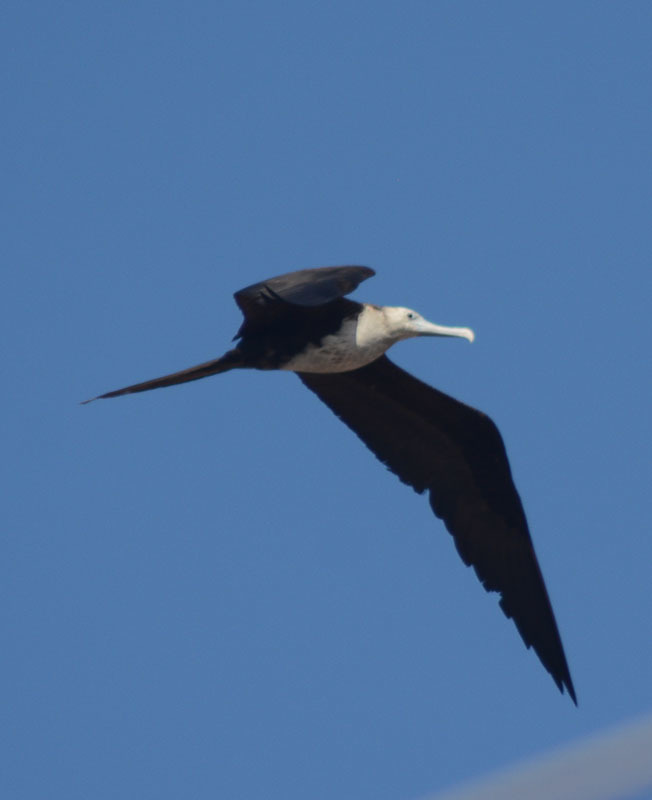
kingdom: Animalia
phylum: Chordata
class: Aves
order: Suliformes
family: Fregatidae
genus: Fregata
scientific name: Fregata magnificens
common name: Magnificent frigatebird
